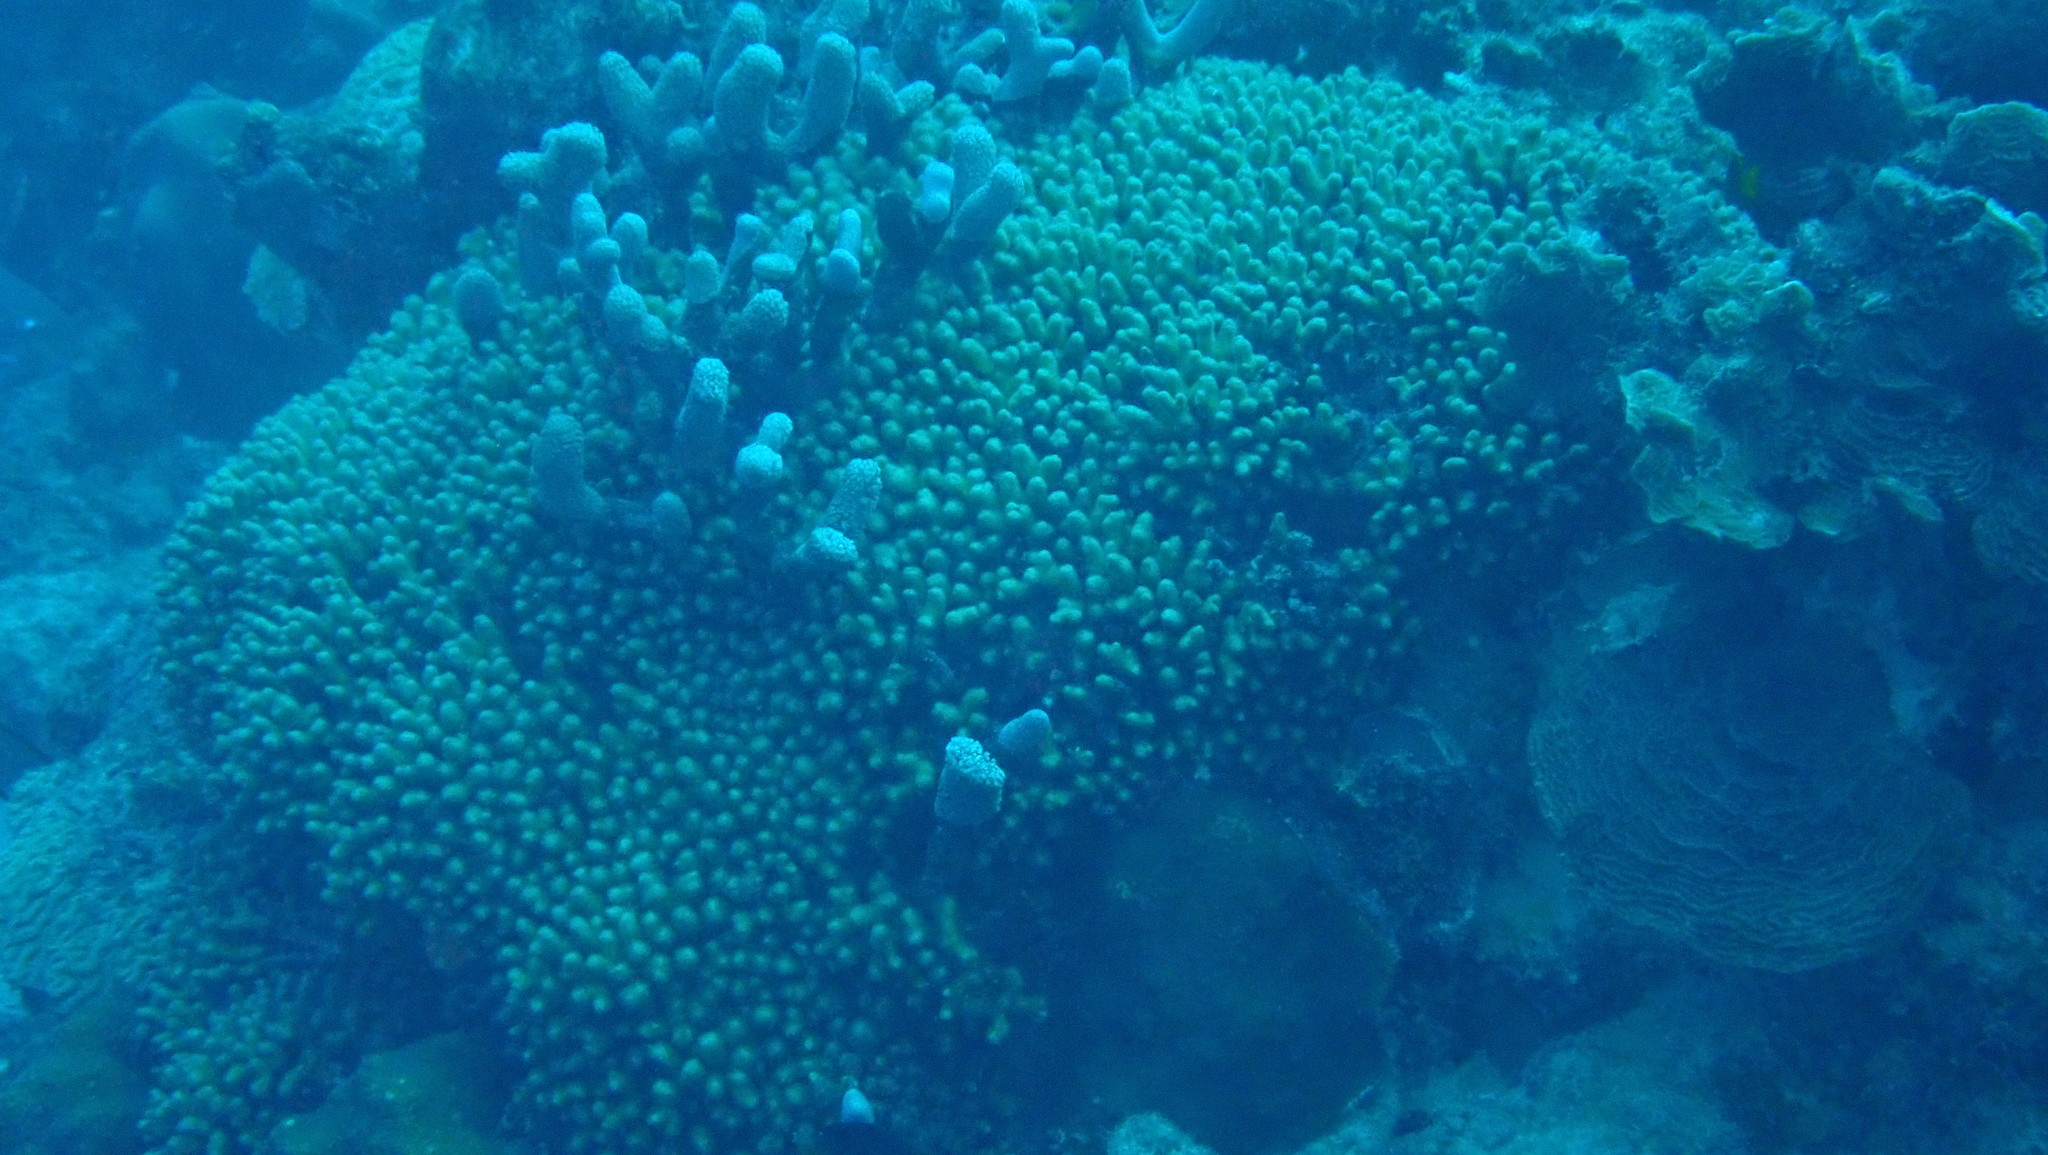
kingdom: Animalia
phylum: Cnidaria
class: Anthozoa
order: Scleractinia
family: Pocilloporidae
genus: Madracis
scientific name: Madracis auretenra
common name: Yellow pencil coral
